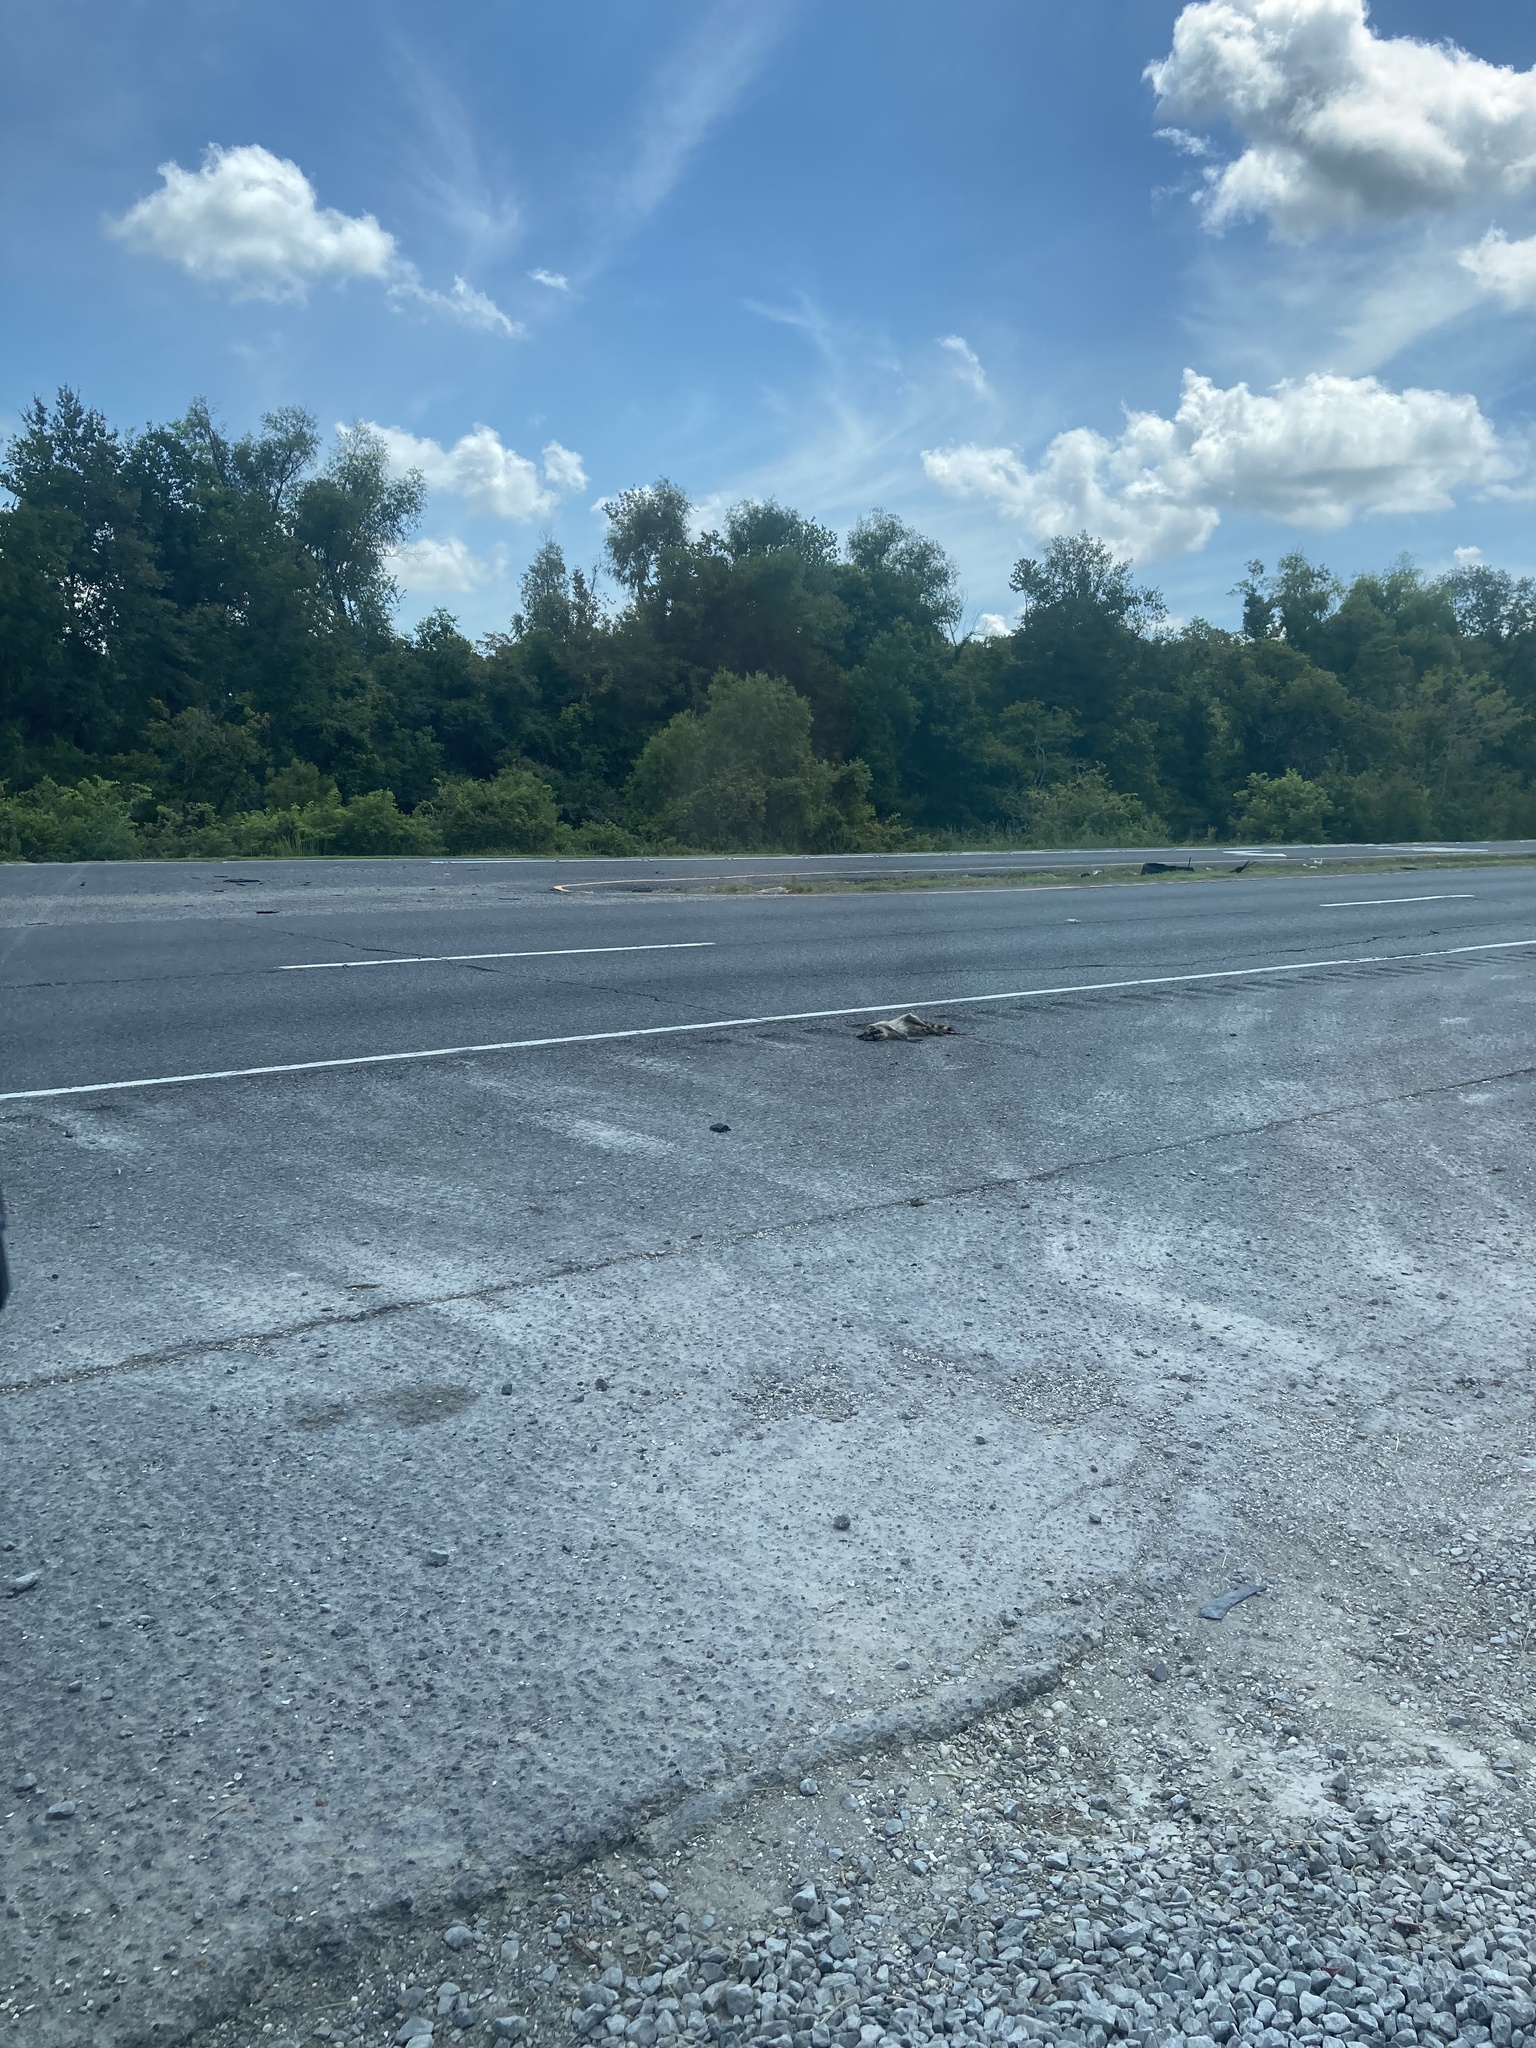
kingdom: Animalia
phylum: Chordata
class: Mammalia
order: Carnivora
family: Procyonidae
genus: Procyon
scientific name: Procyon lotor
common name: Raccoon
